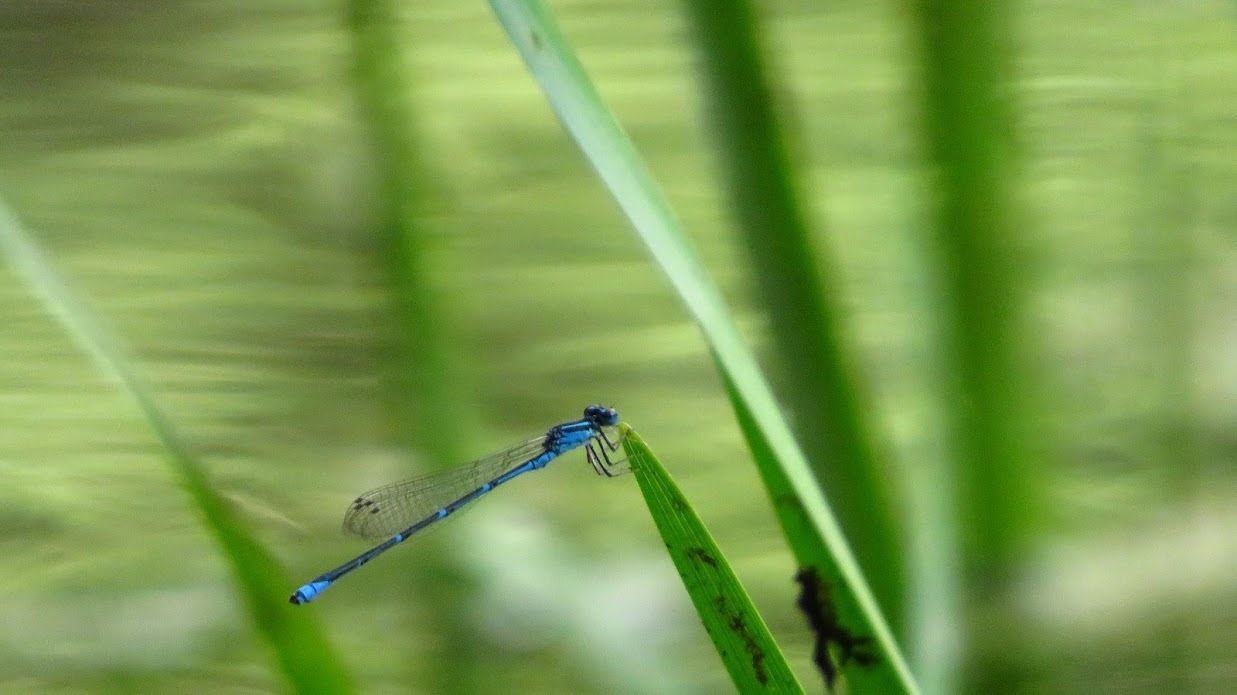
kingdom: Animalia
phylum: Arthropoda
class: Insecta
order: Odonata
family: Coenagrionidae
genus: Enallagma
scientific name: Enallagma exsulans
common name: Stream bluet
